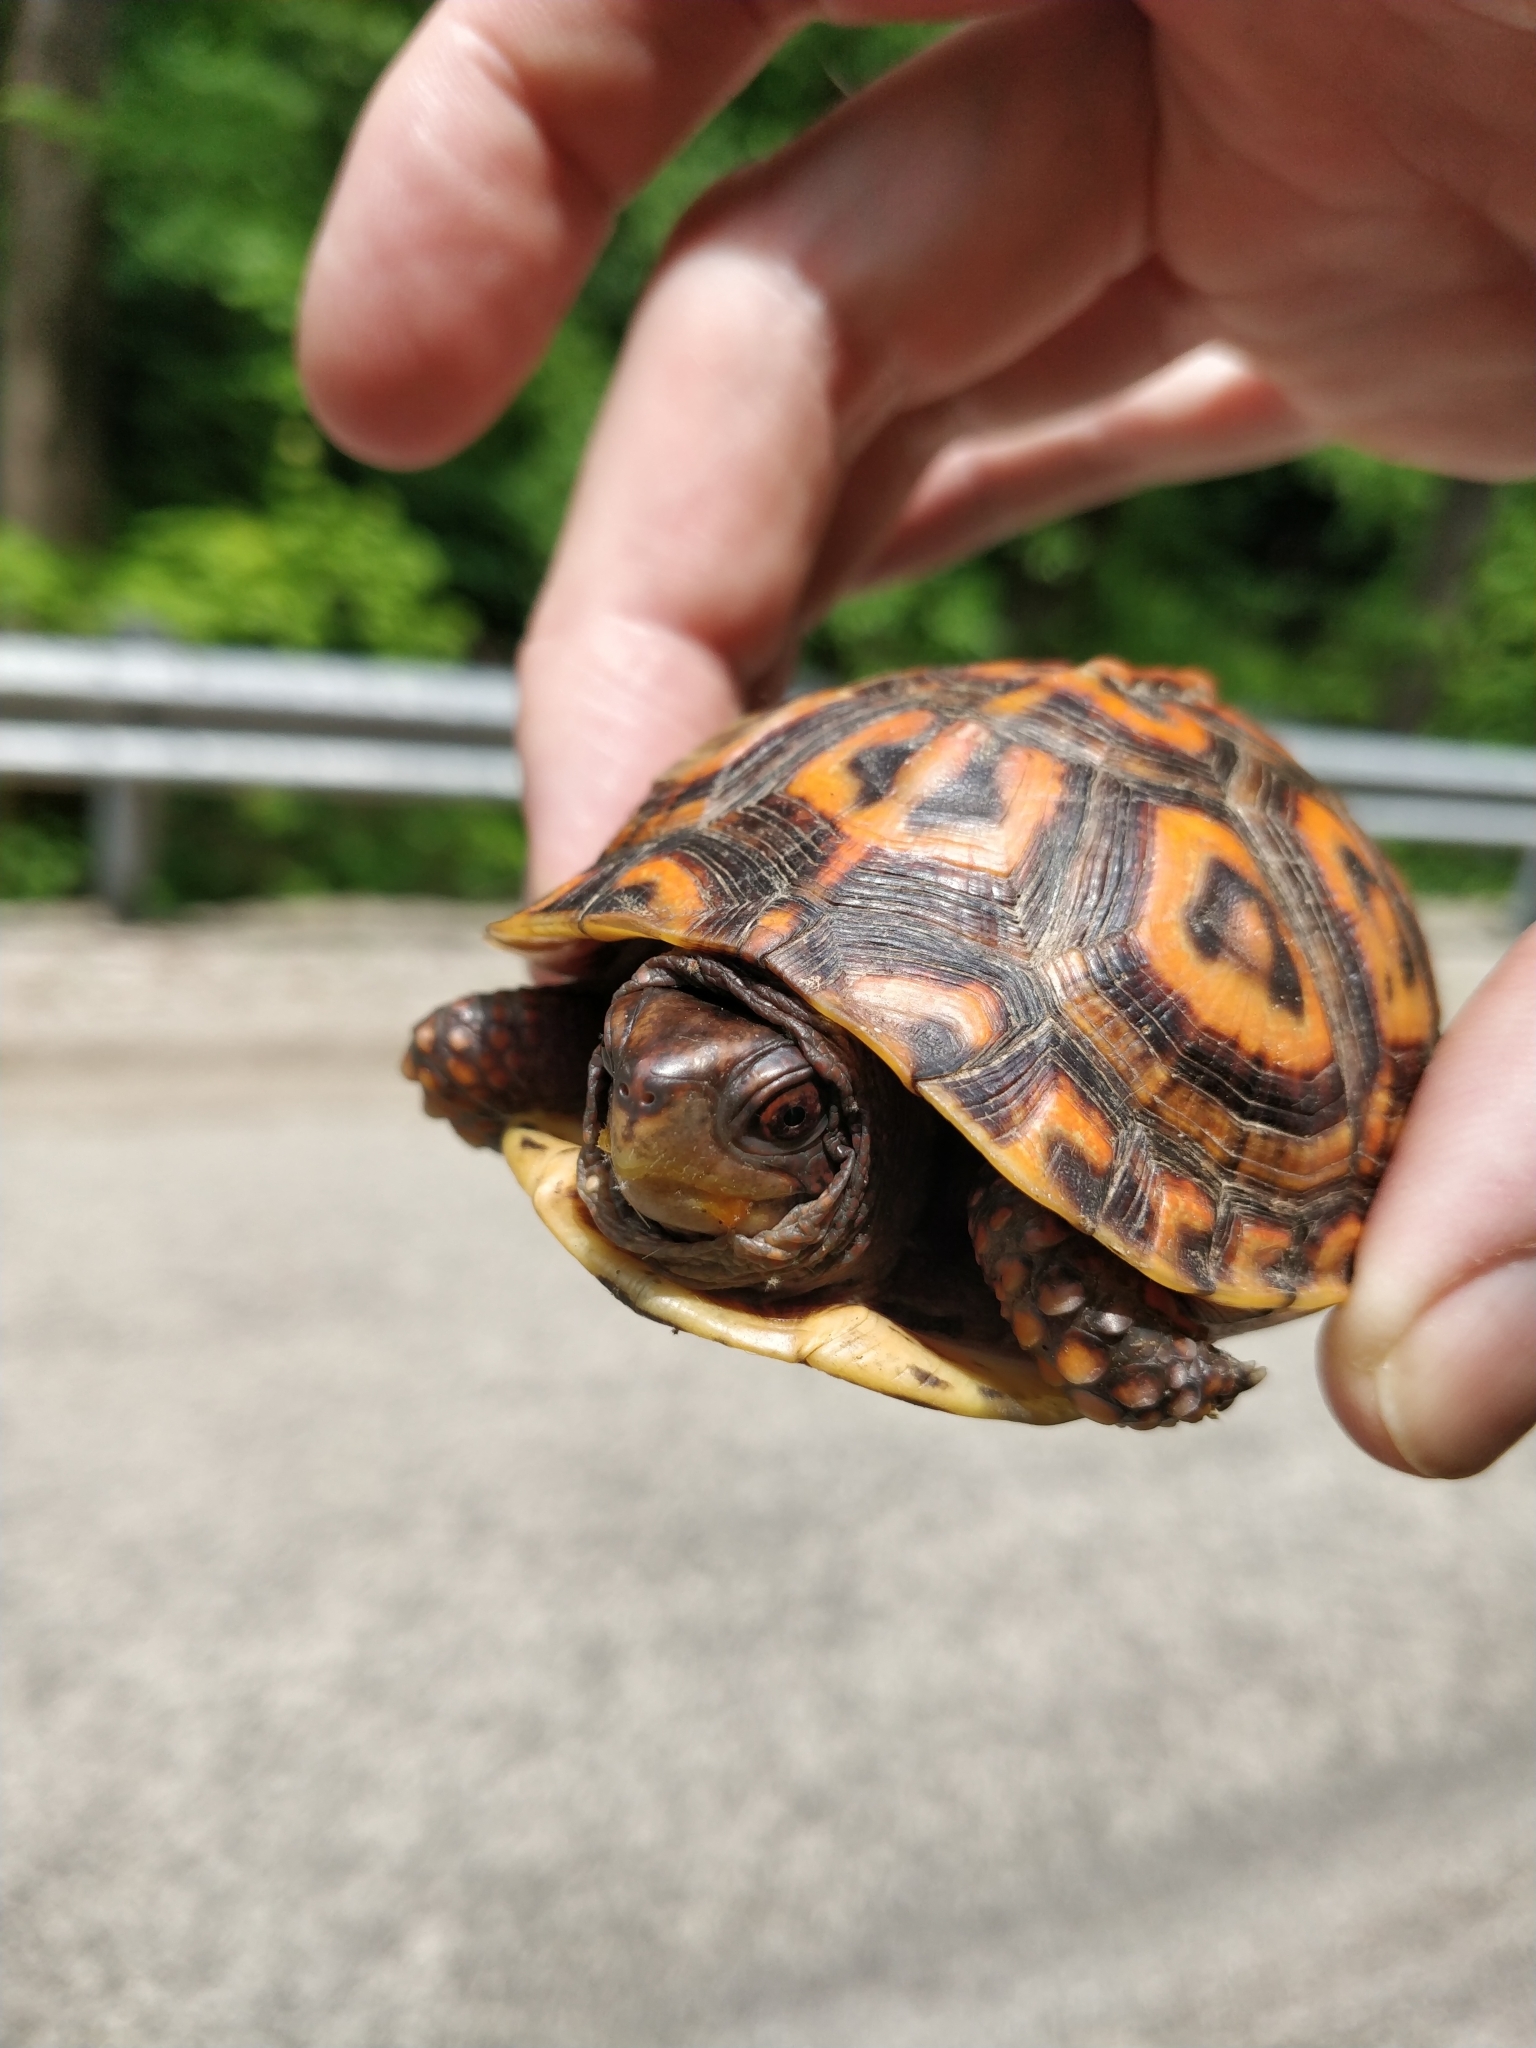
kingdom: Animalia
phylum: Chordata
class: Testudines
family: Emydidae
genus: Terrapene
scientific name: Terrapene carolina
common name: Common box turtle
